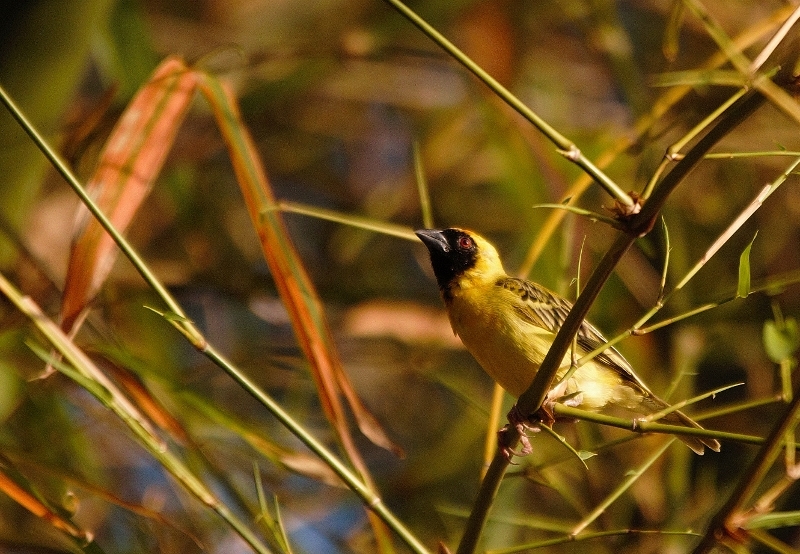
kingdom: Animalia
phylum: Chordata
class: Aves
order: Passeriformes
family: Ploceidae
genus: Ploceus
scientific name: Ploceus velatus
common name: Southern masked weaver
